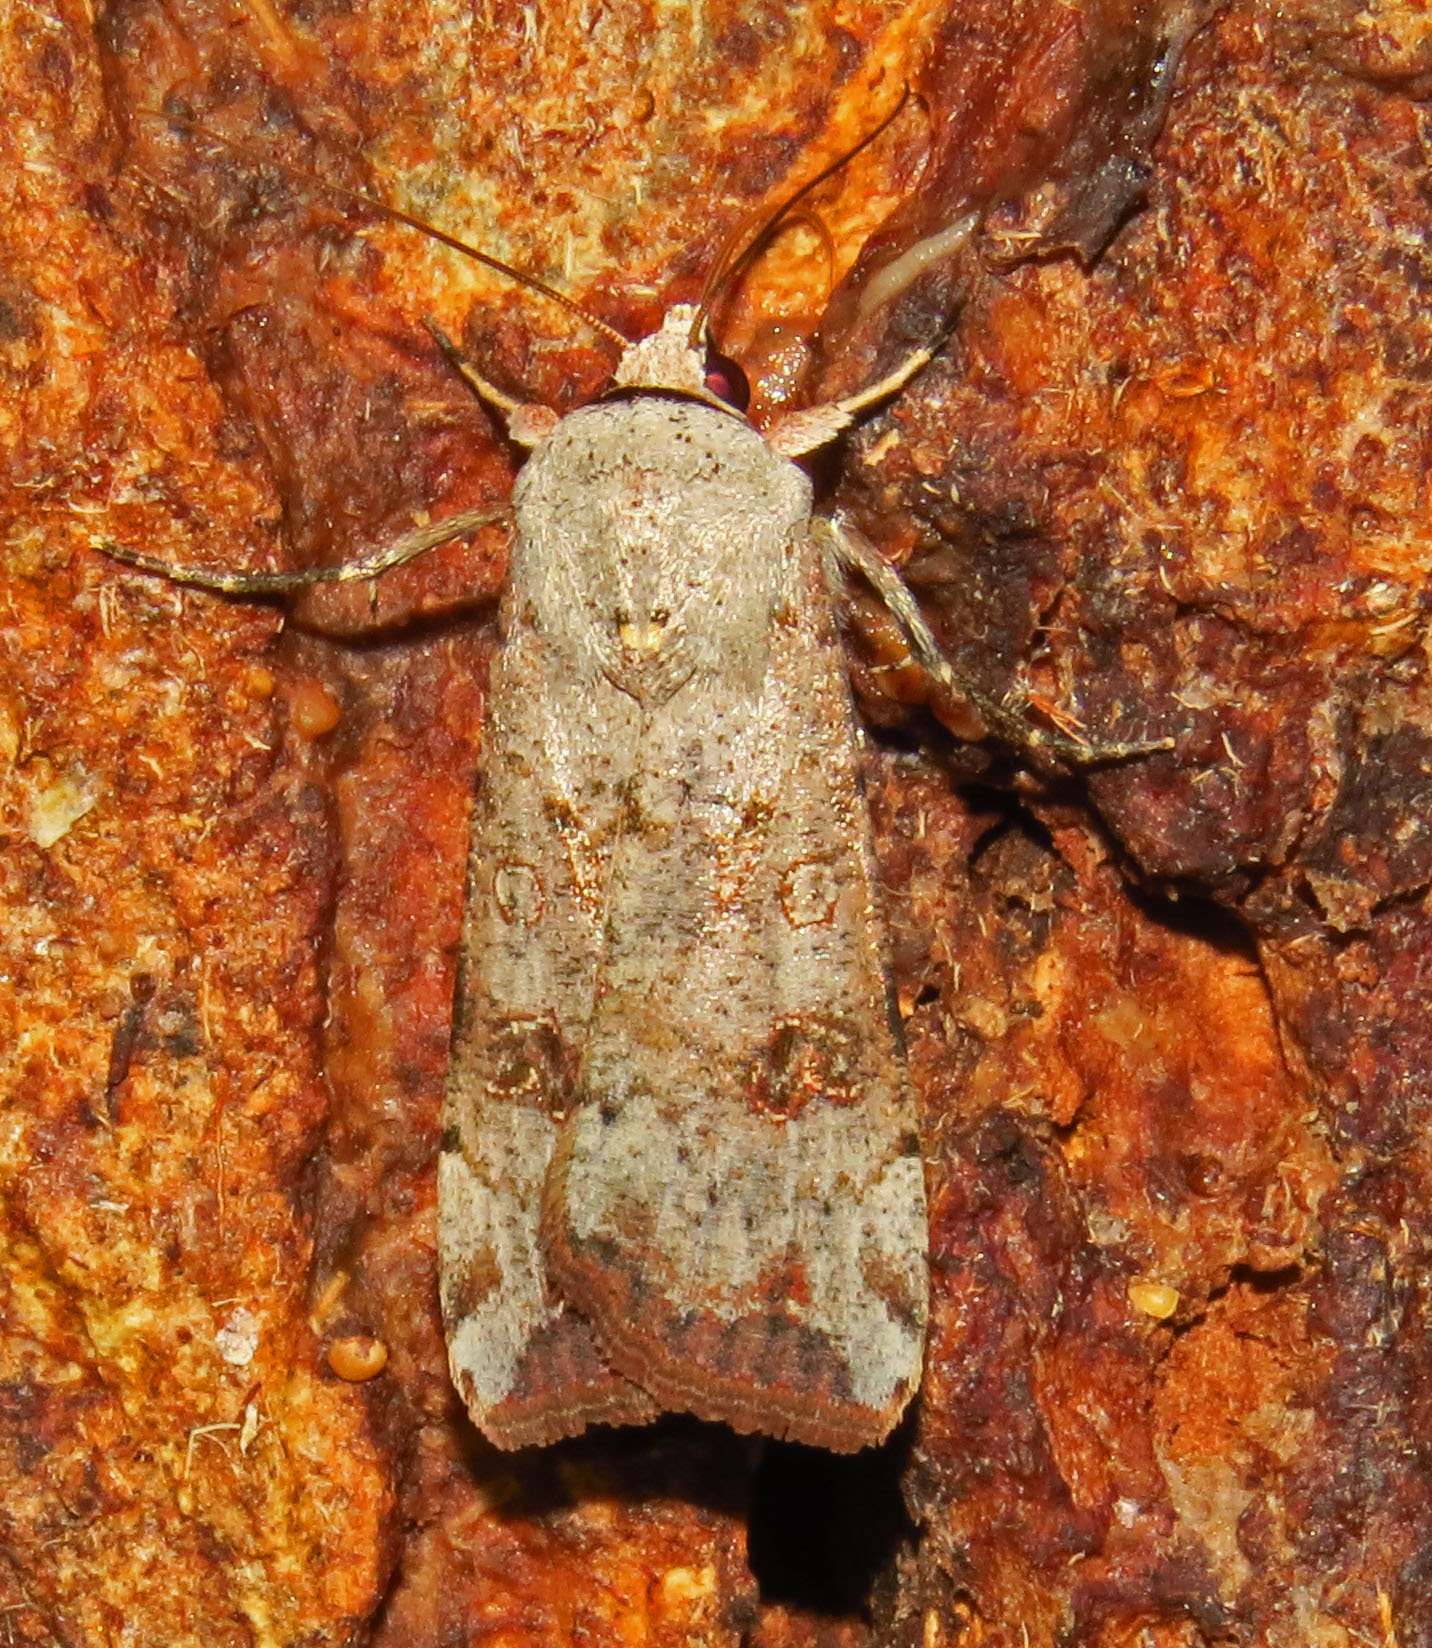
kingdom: Animalia
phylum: Arthropoda
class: Insecta
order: Lepidoptera
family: Noctuidae
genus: Anicla
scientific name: Anicla infecta
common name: Green cutworm
